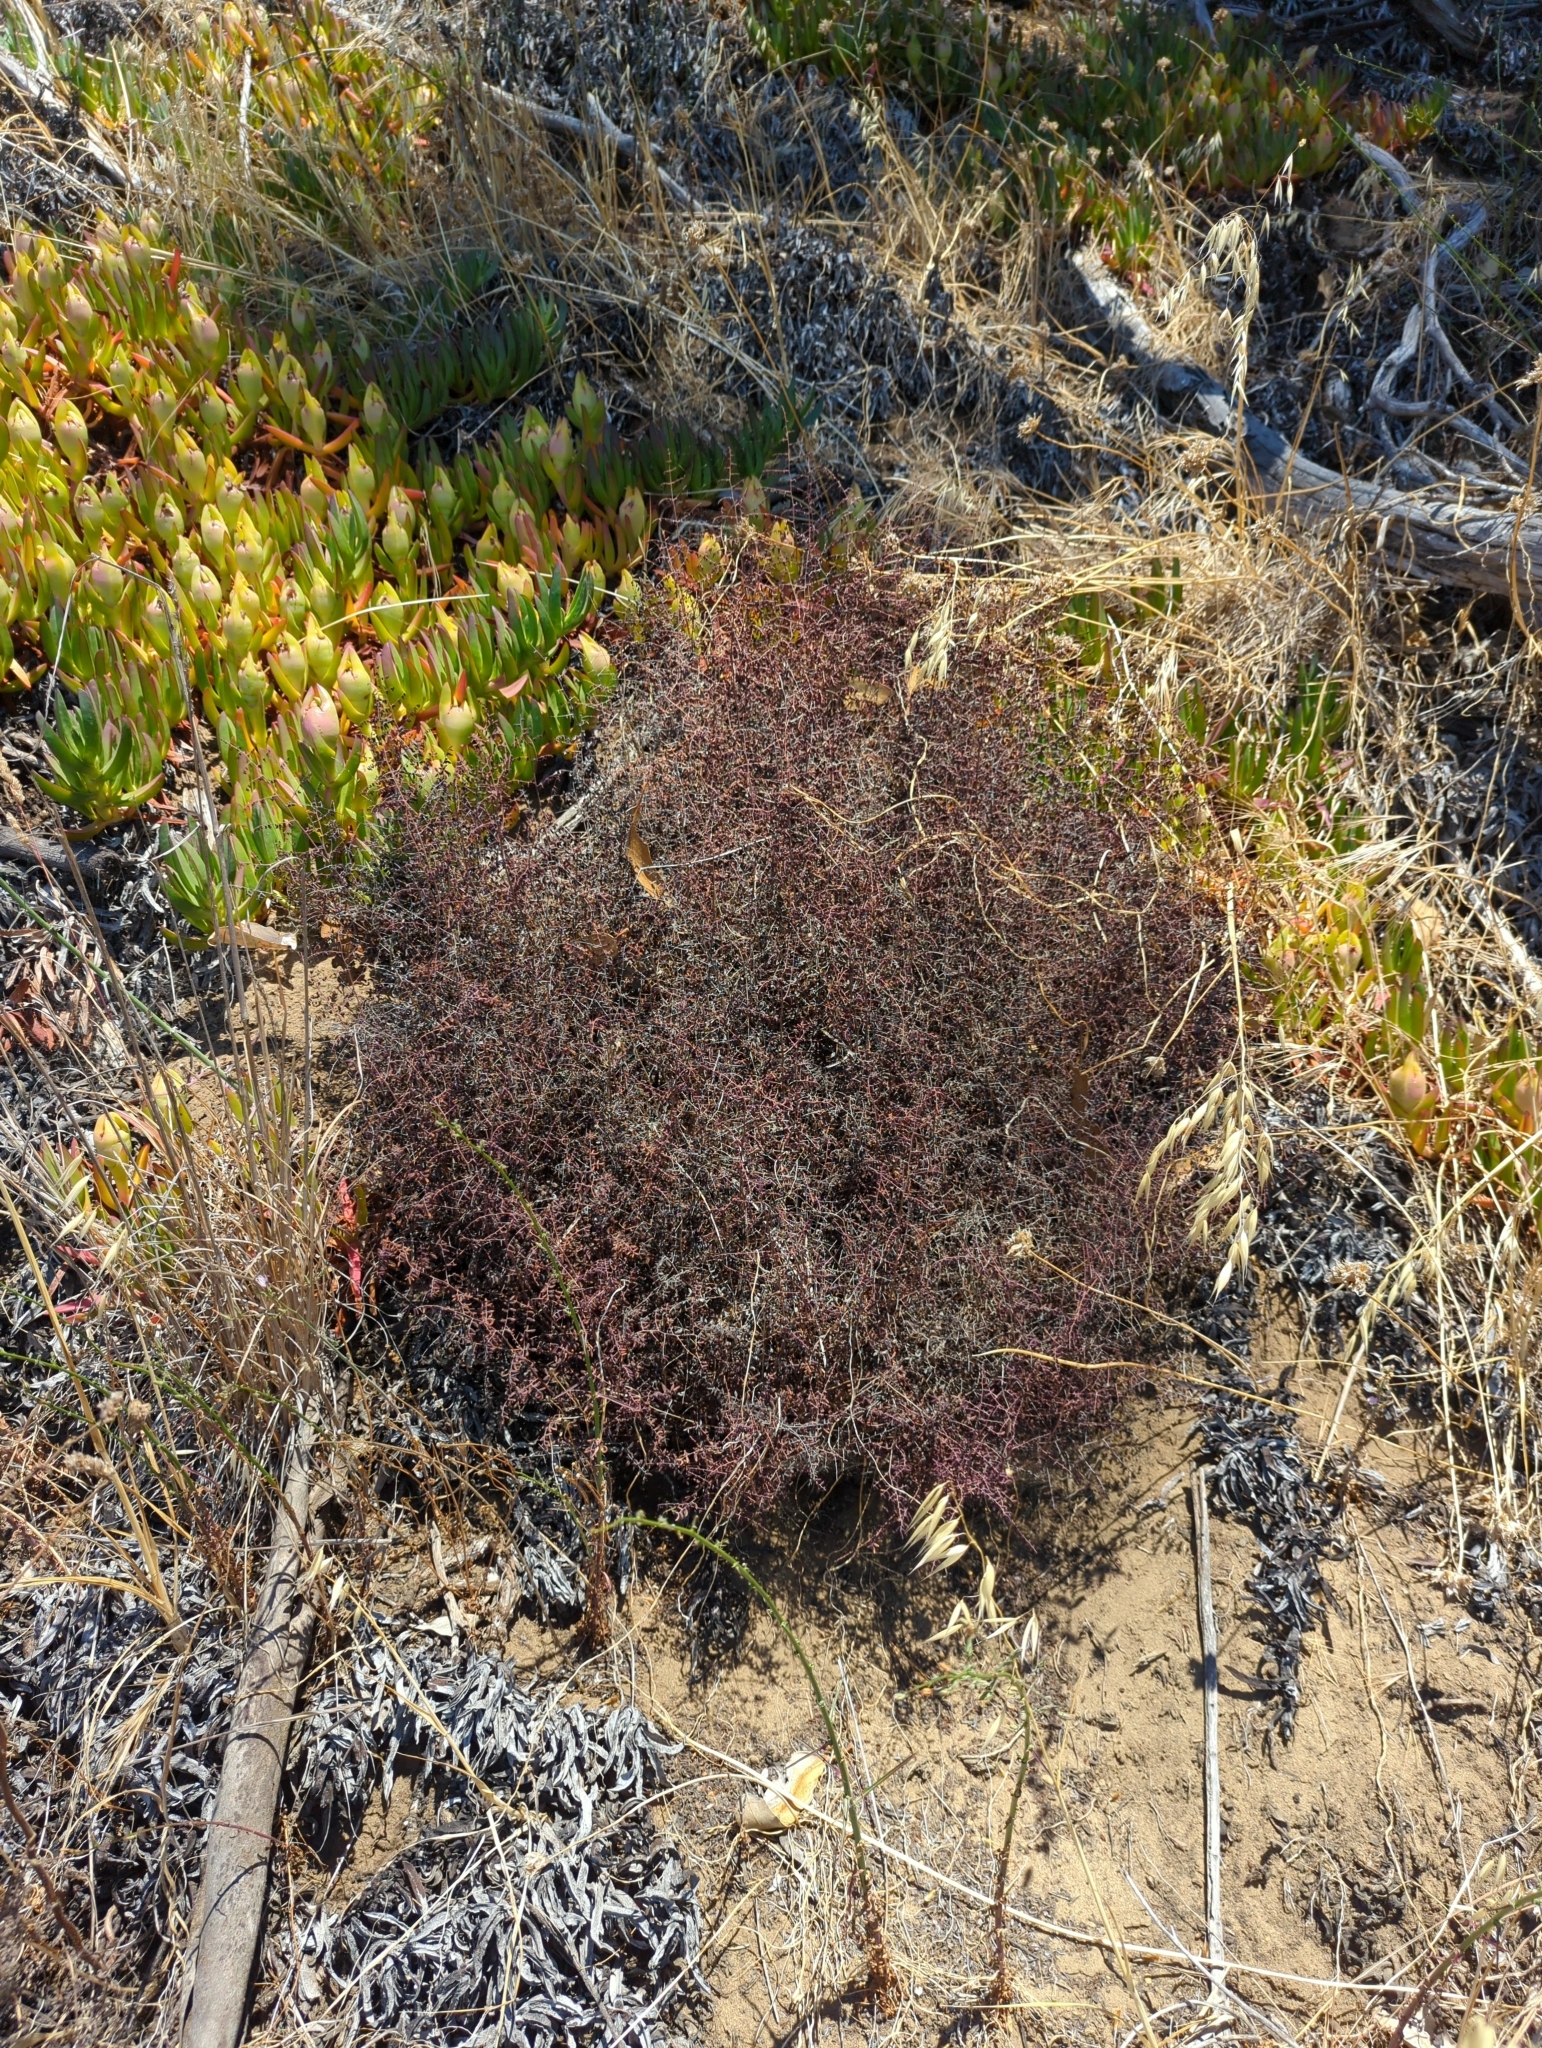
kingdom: Plantae
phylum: Tracheophyta
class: Polypodiopsida
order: Polypodiales
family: Pteridaceae
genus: Pellaea
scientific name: Pellaea andromedifolia
